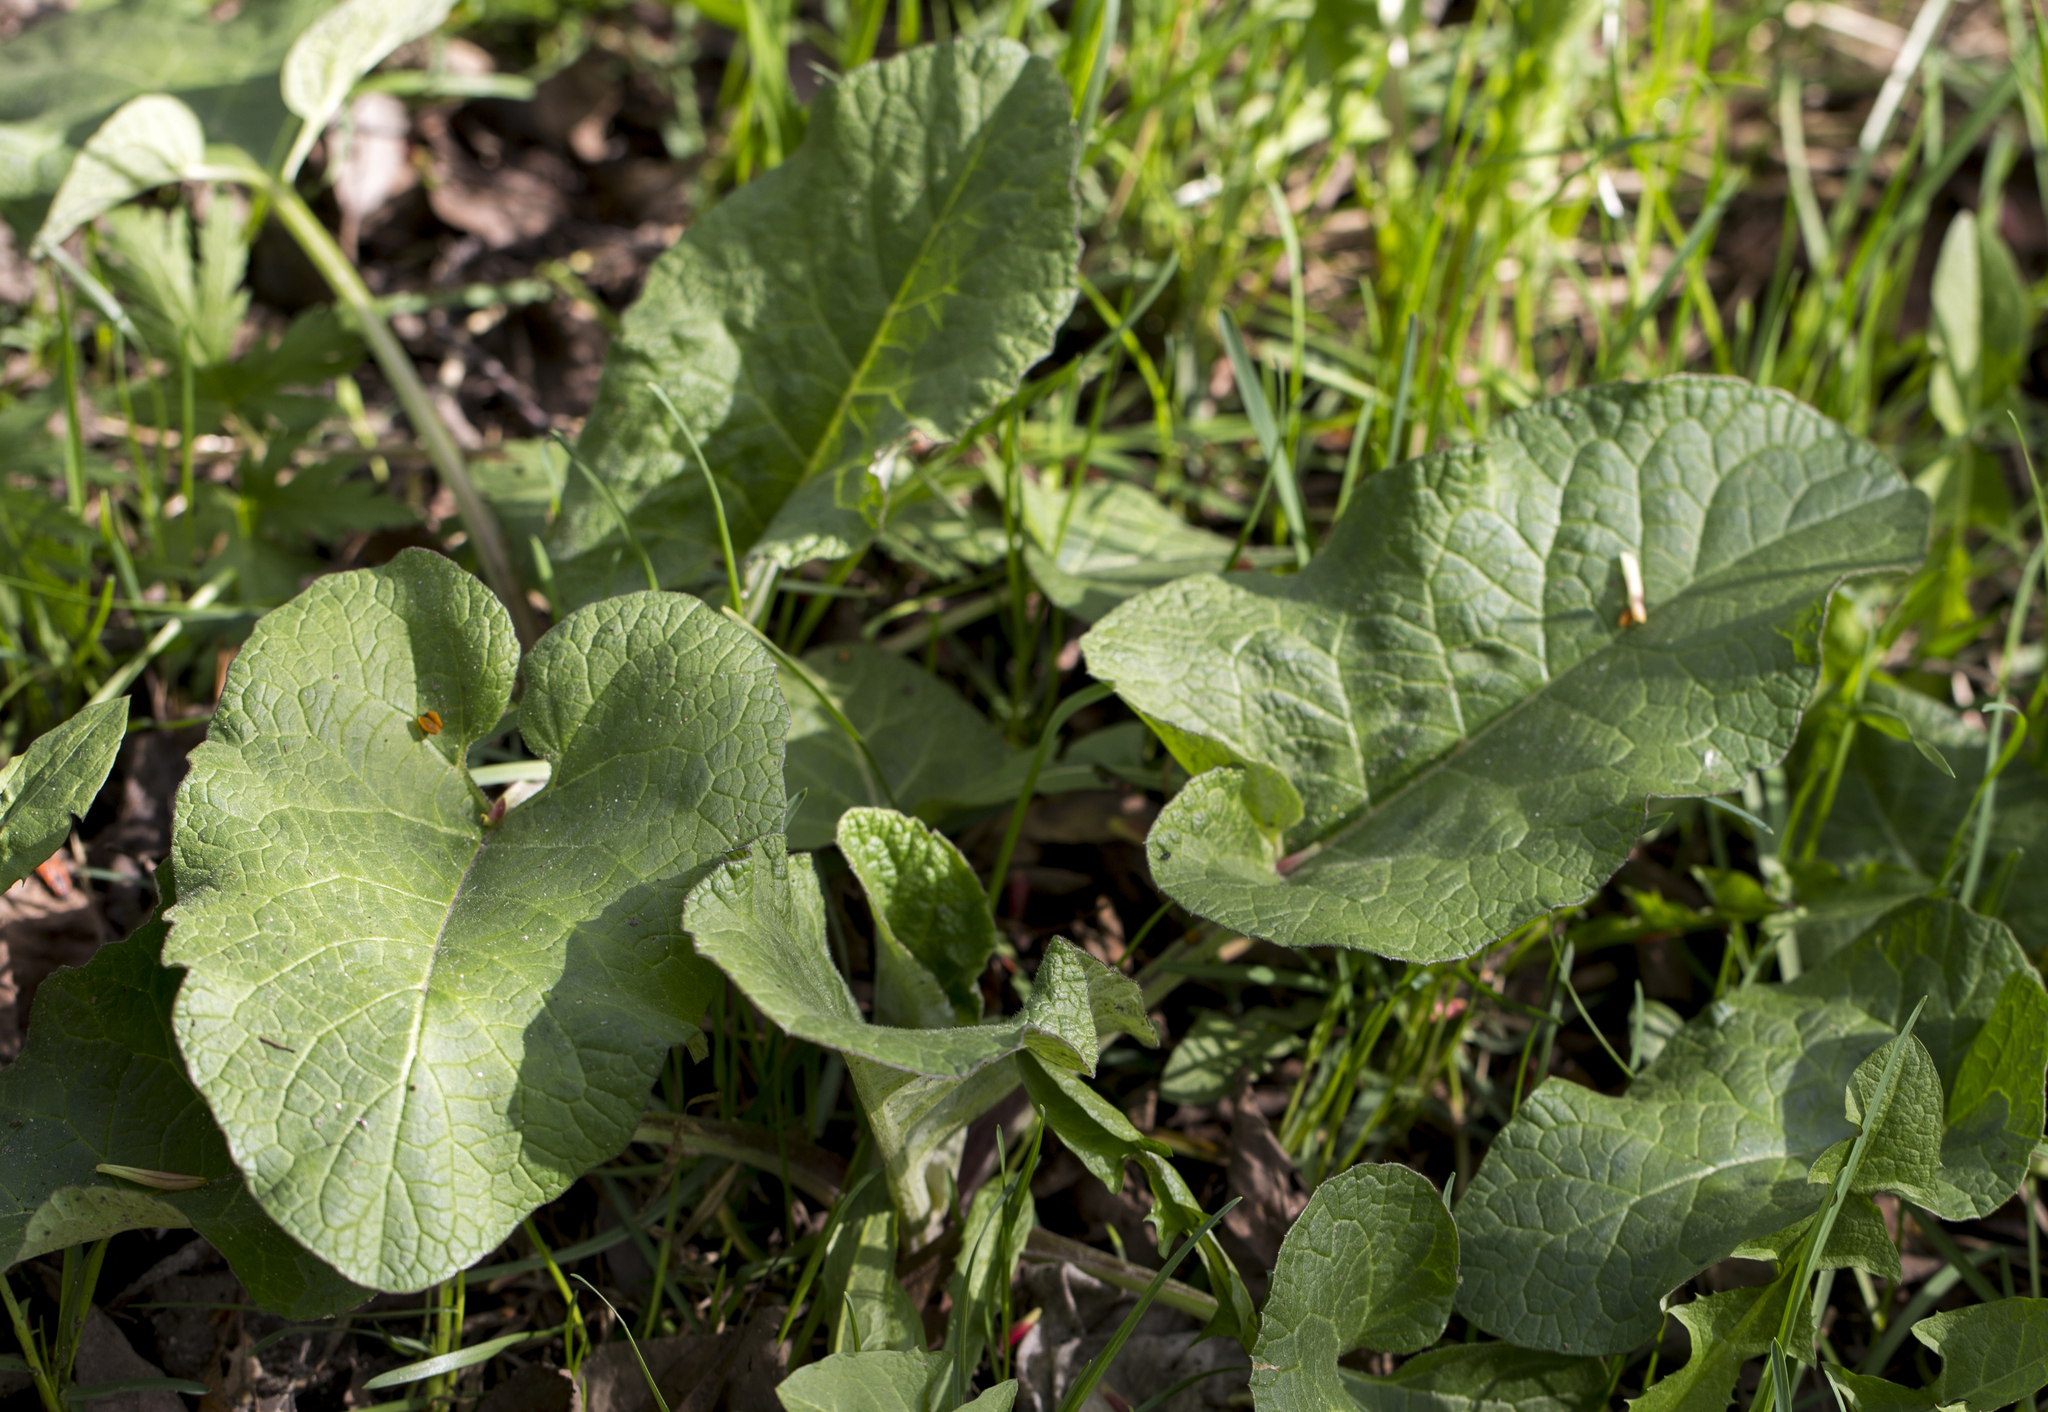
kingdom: Plantae
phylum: Tracheophyta
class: Magnoliopsida
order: Asterales
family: Asteraceae
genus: Arctium
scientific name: Arctium
